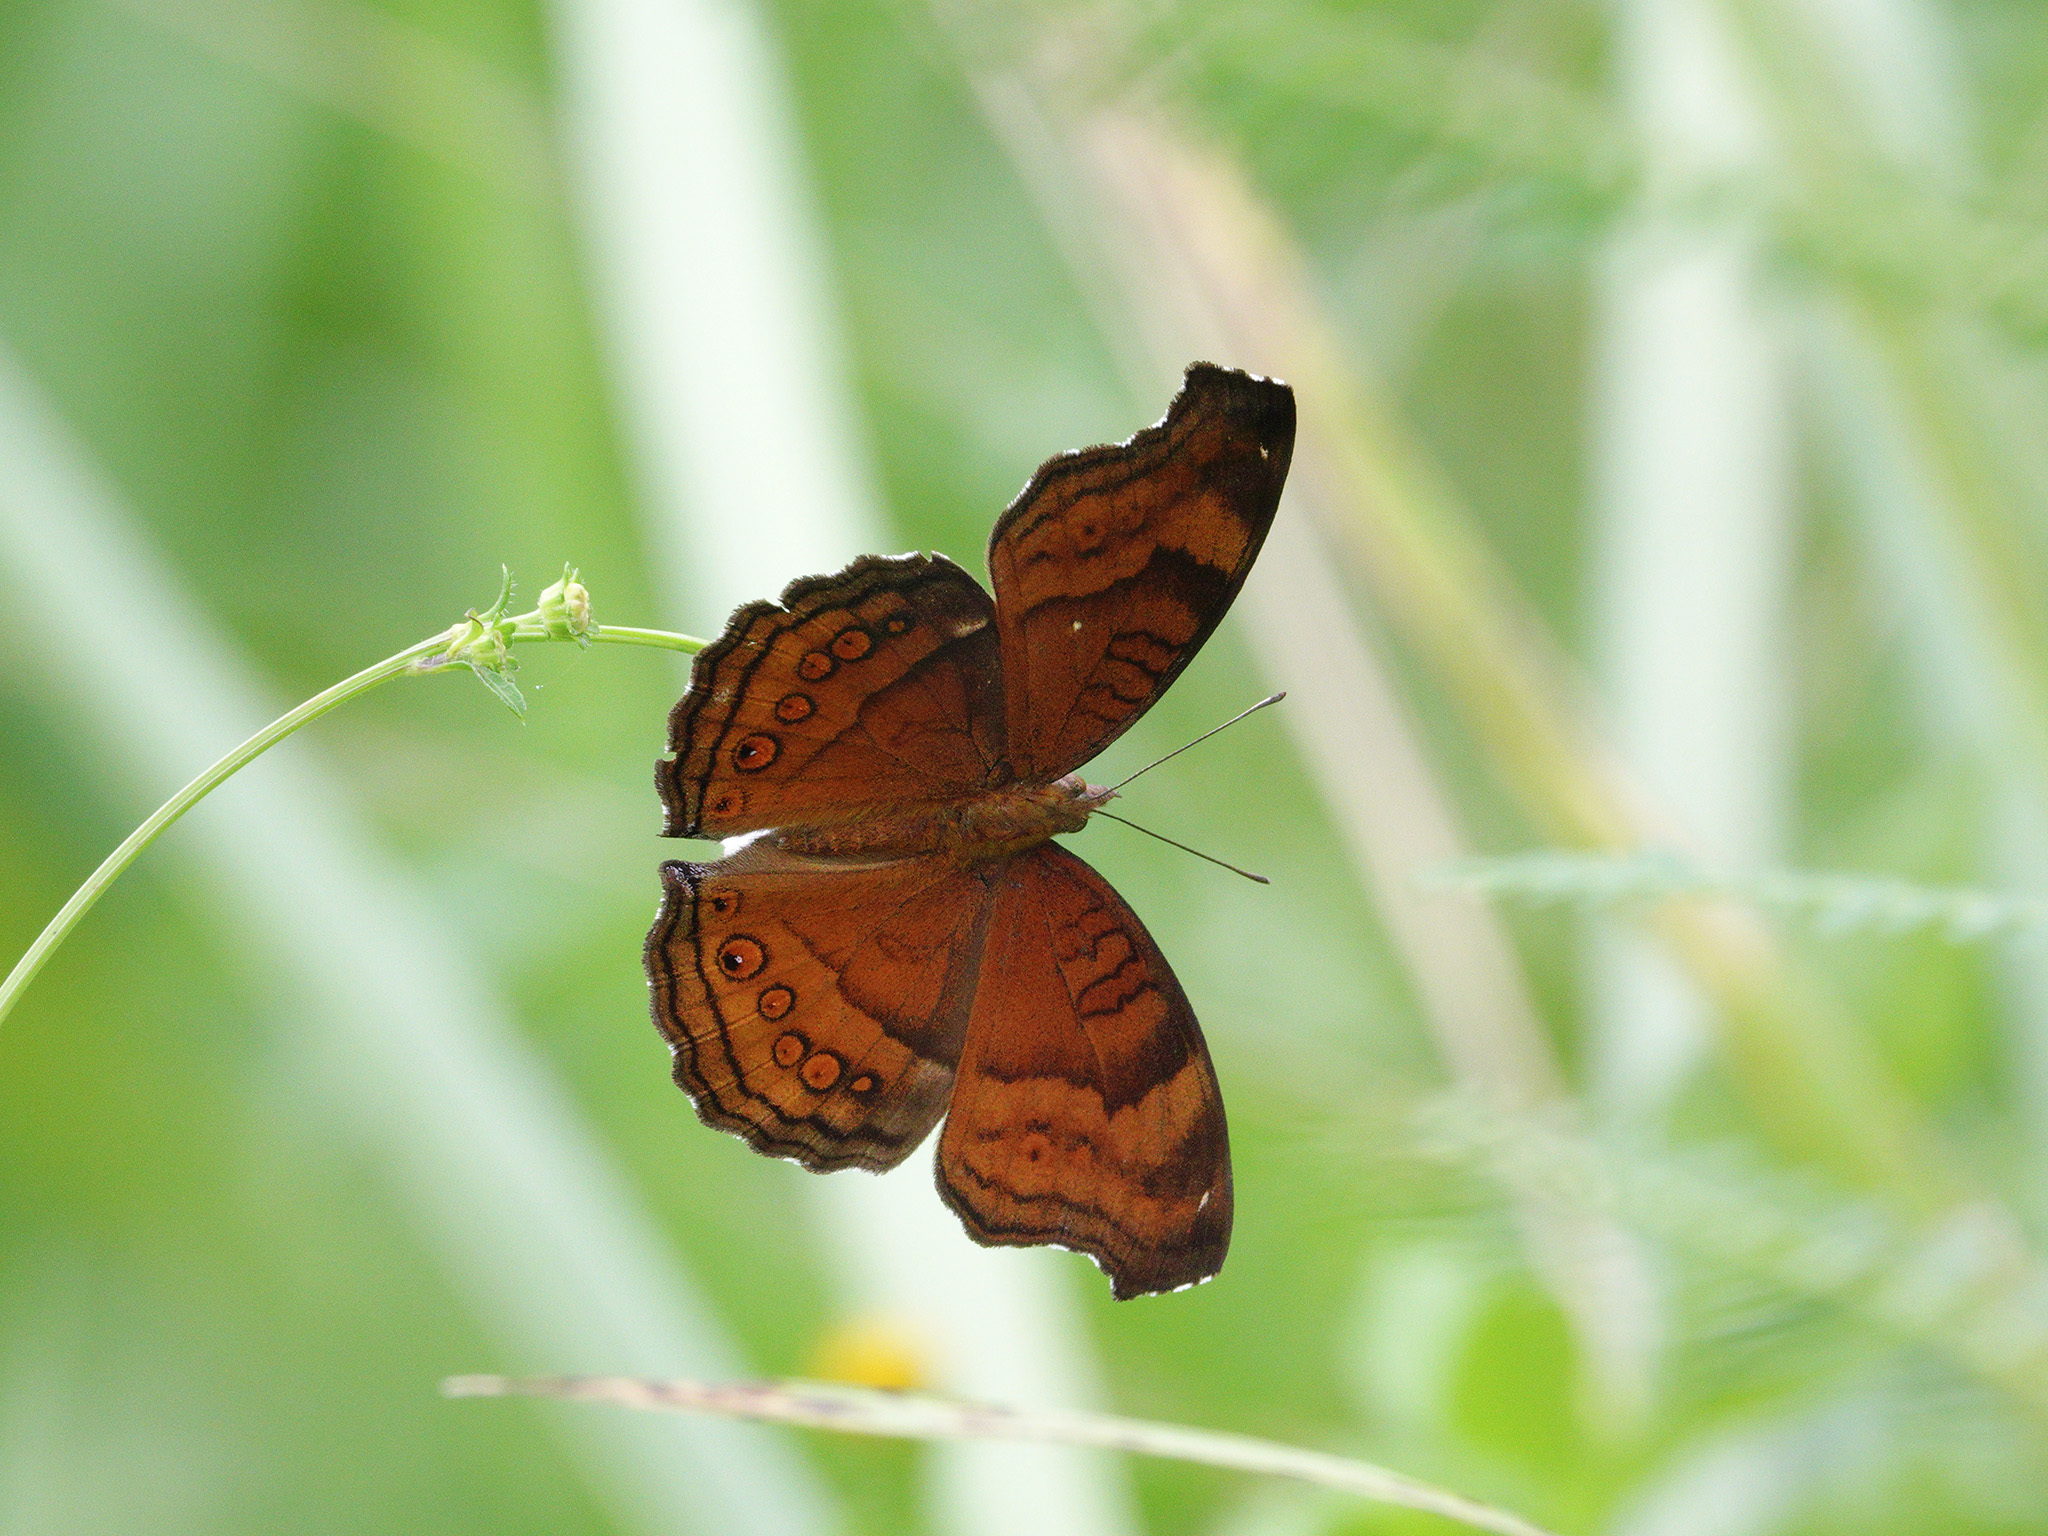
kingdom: Animalia
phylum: Arthropoda
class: Insecta
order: Lepidoptera
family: Nymphalidae
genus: Junonia
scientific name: Junonia hedonia
